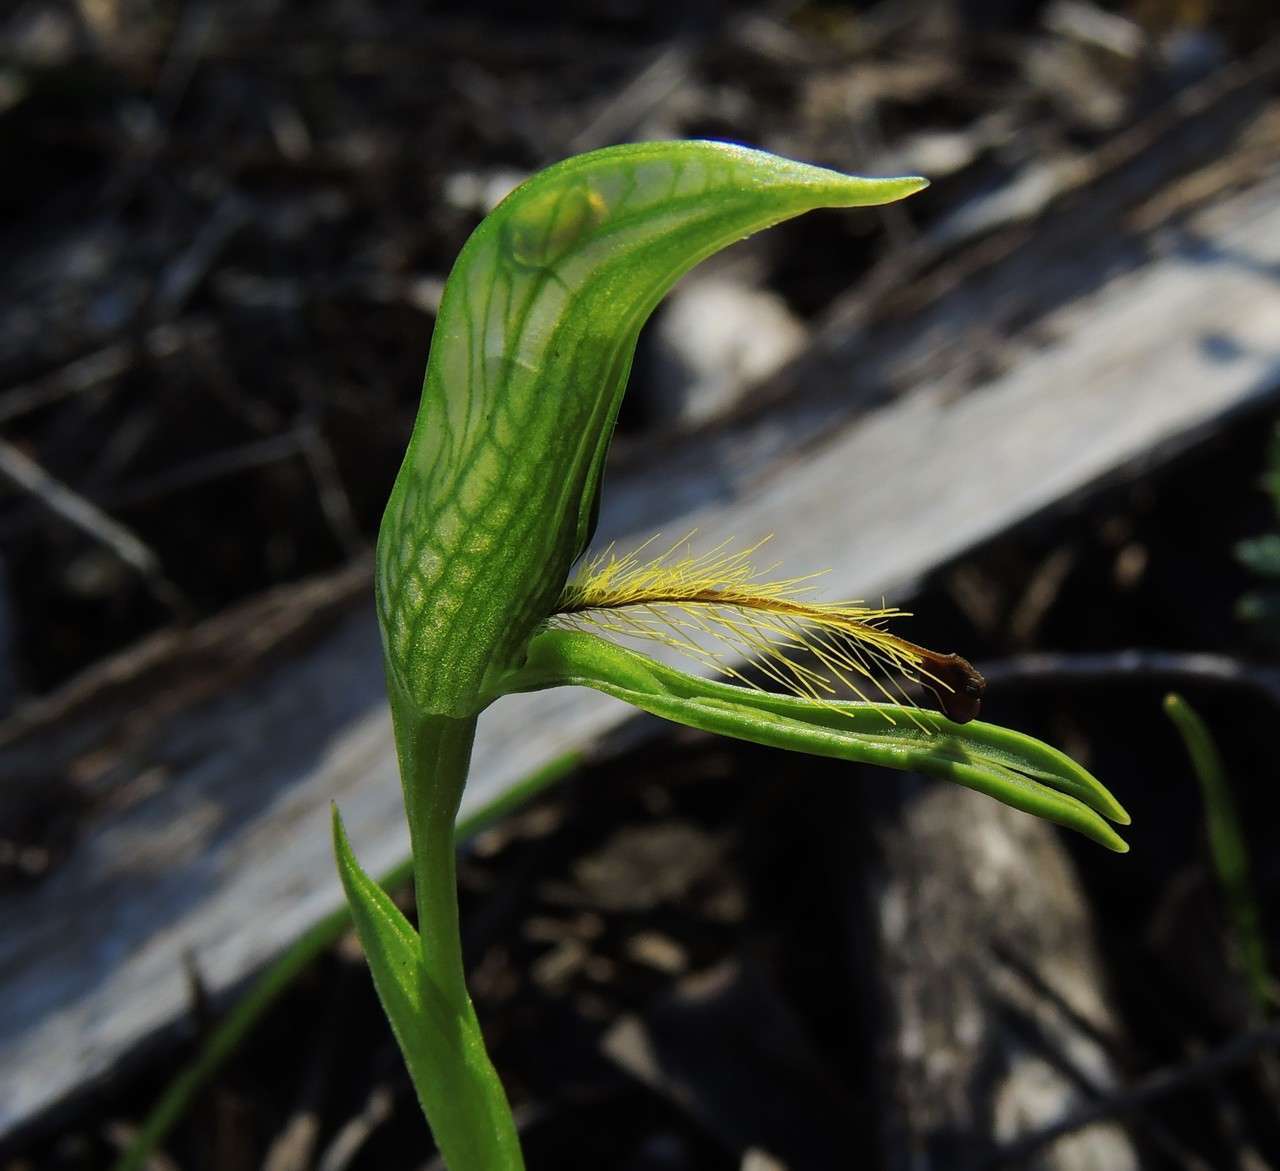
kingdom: Plantae
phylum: Tracheophyta
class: Liliopsida
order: Asparagales
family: Orchidaceae
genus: Pterostylis
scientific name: Pterostylis plumosa
